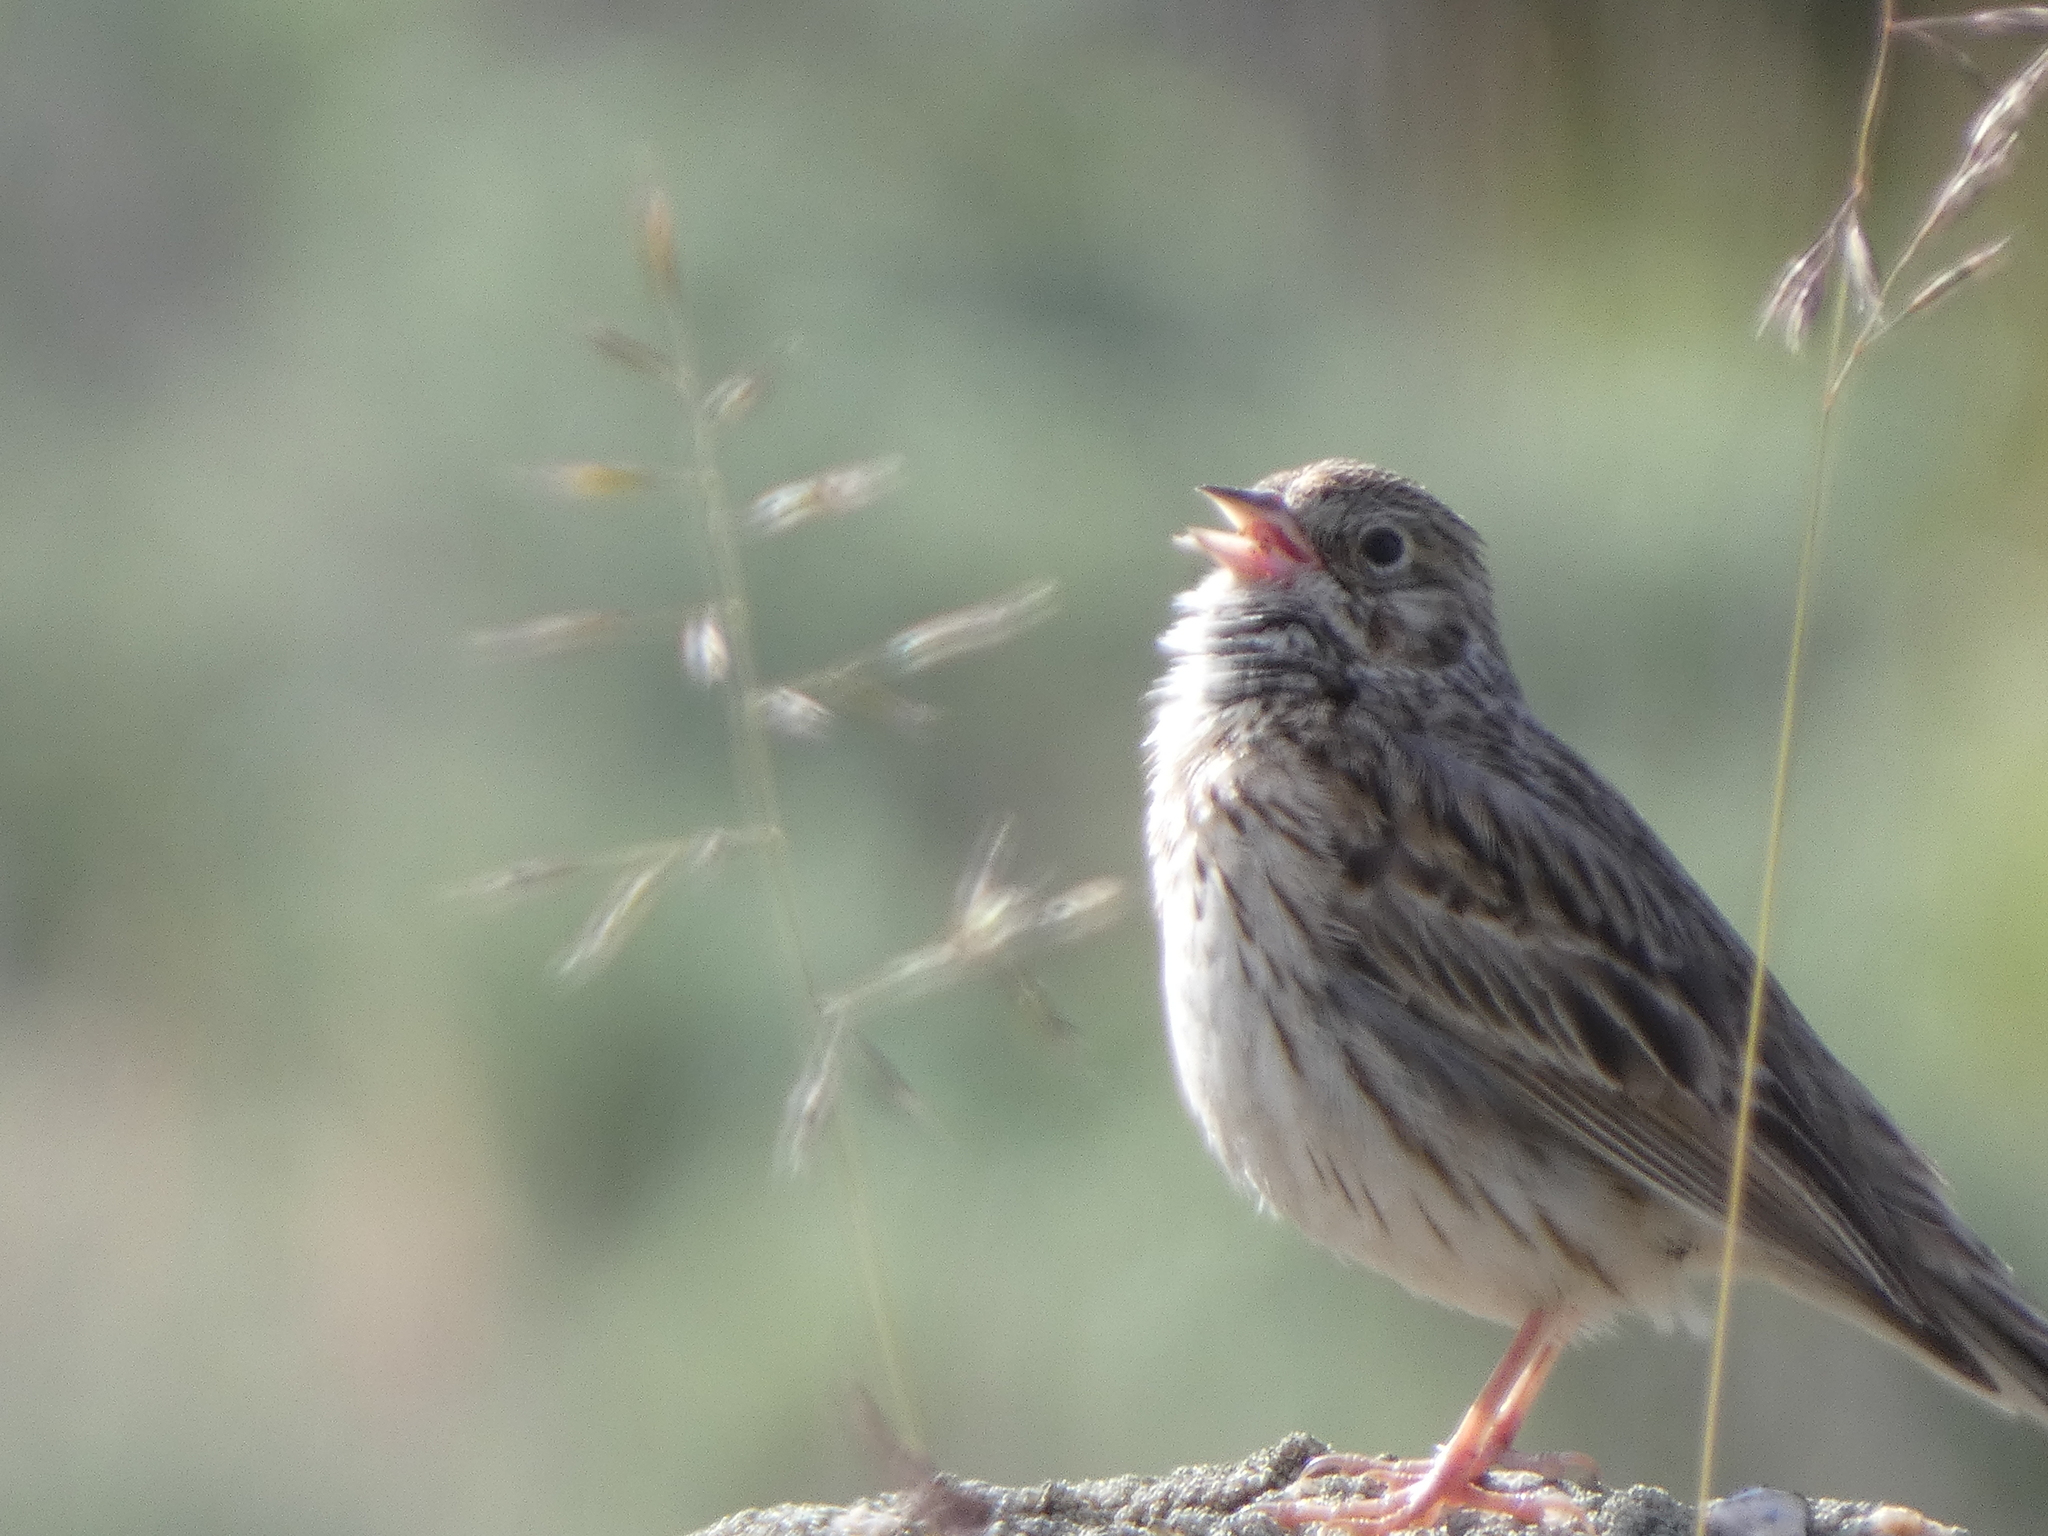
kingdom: Animalia
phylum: Chordata
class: Aves
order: Passeriformes
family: Passerellidae
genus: Pooecetes
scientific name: Pooecetes gramineus
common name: Vesper sparrow
